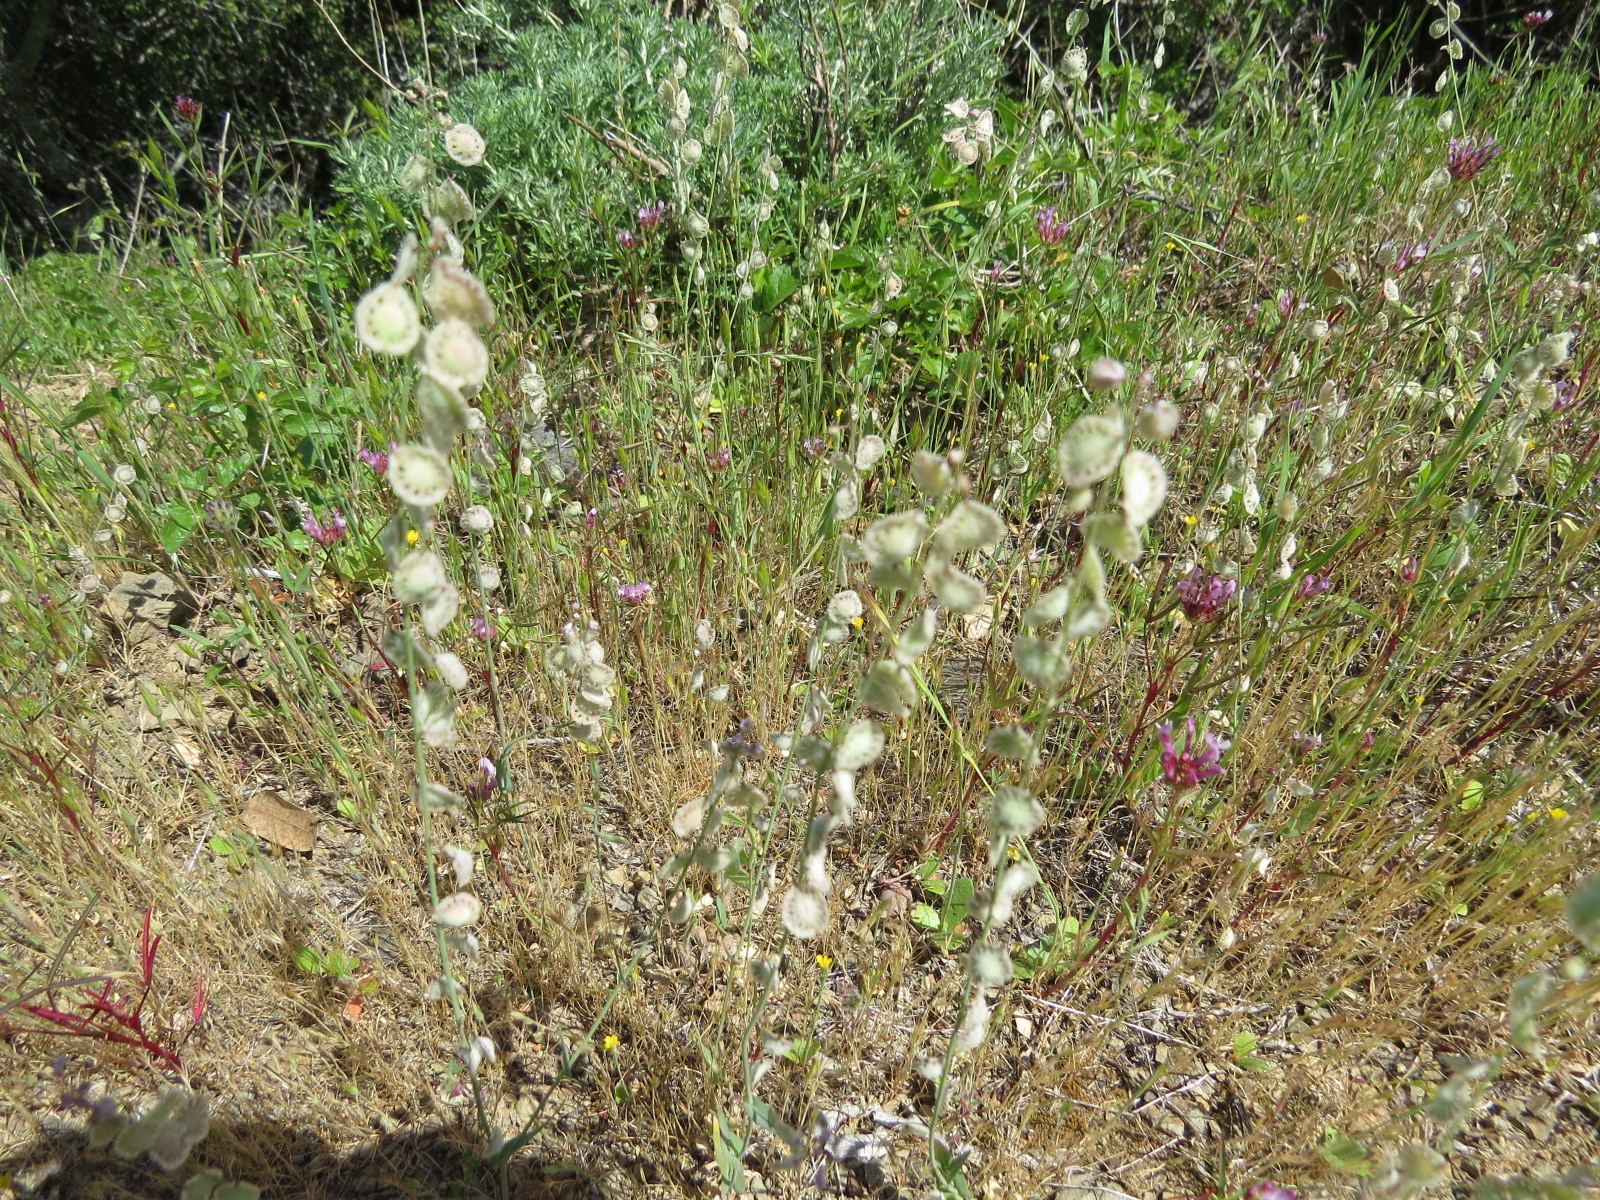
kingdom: Plantae
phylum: Tracheophyta
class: Magnoliopsida
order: Brassicales
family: Brassicaceae
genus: Thysanocarpus
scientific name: Thysanocarpus curvipes
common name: Sand fringepod
